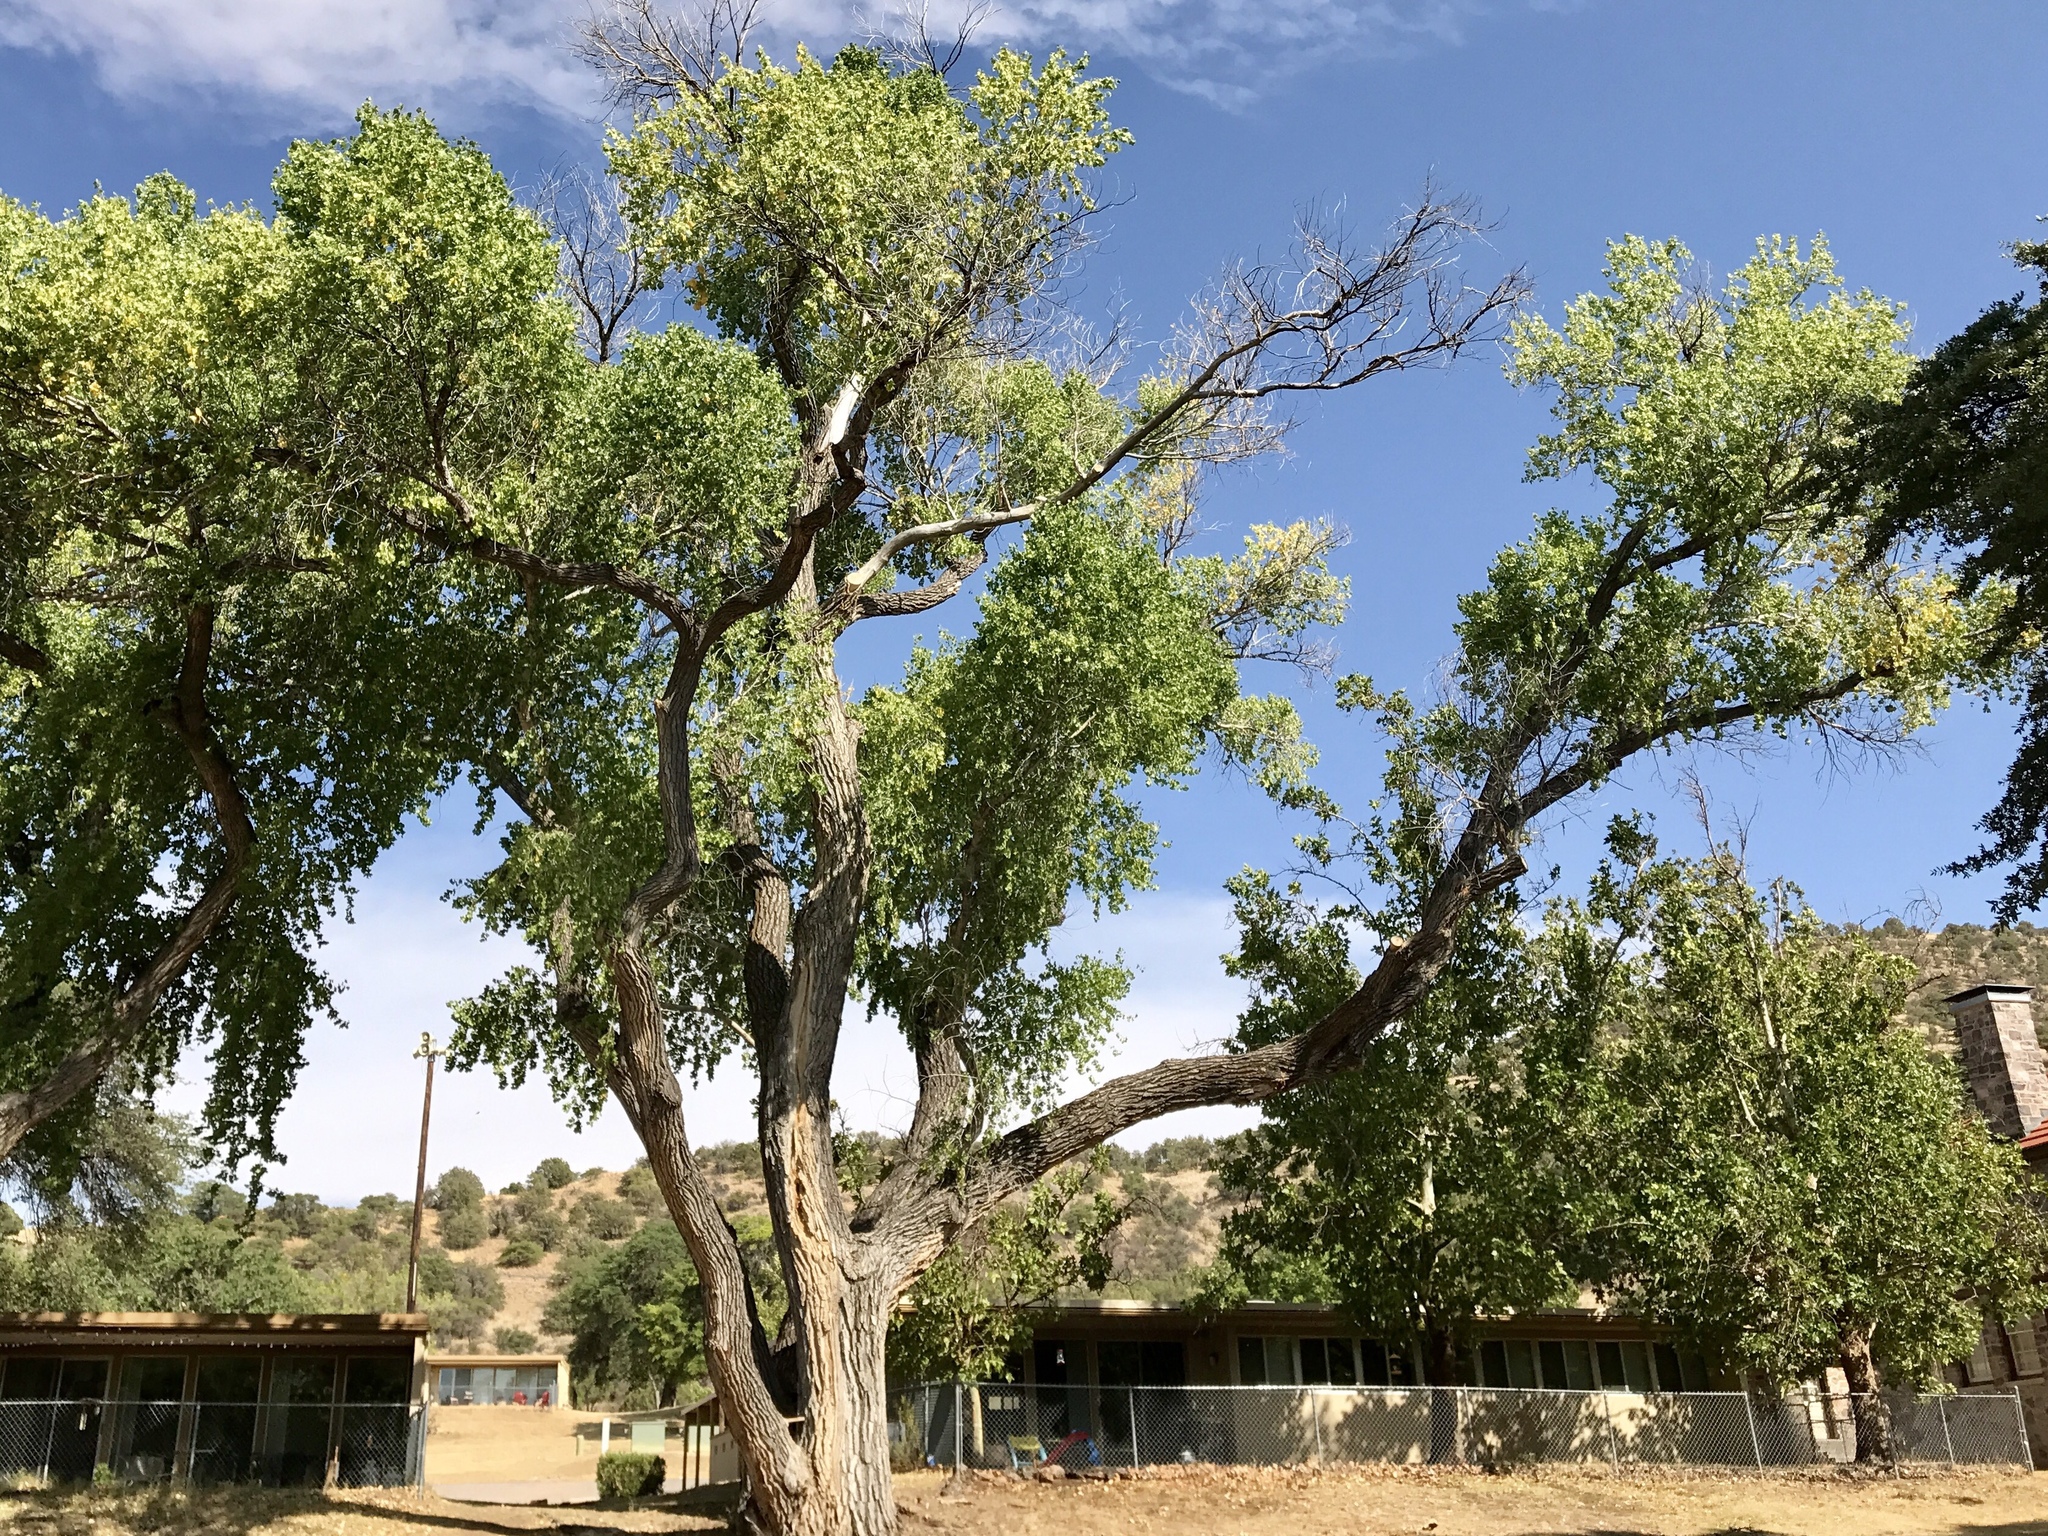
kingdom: Plantae
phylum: Tracheophyta
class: Magnoliopsida
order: Malpighiales
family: Salicaceae
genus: Populus
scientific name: Populus fremontii
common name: Fremont's cottonwood
